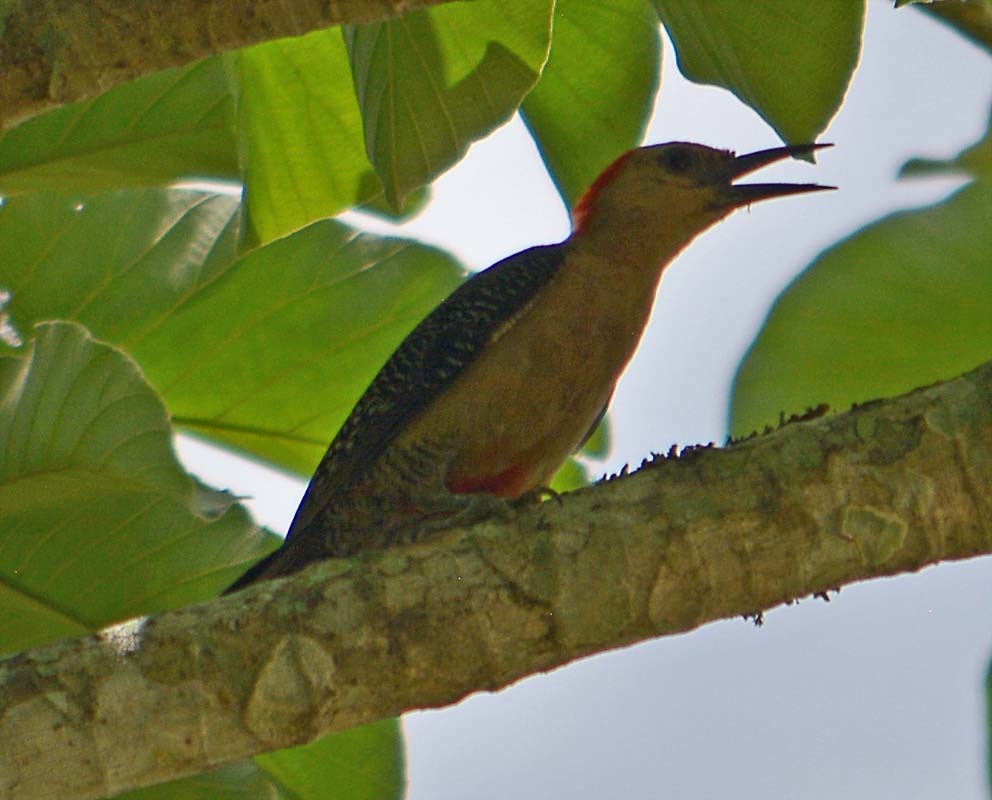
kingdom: Animalia
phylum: Chordata
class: Aves
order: Piciformes
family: Picidae
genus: Melanerpes
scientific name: Melanerpes aurifrons
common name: Golden-fronted woodpecker
